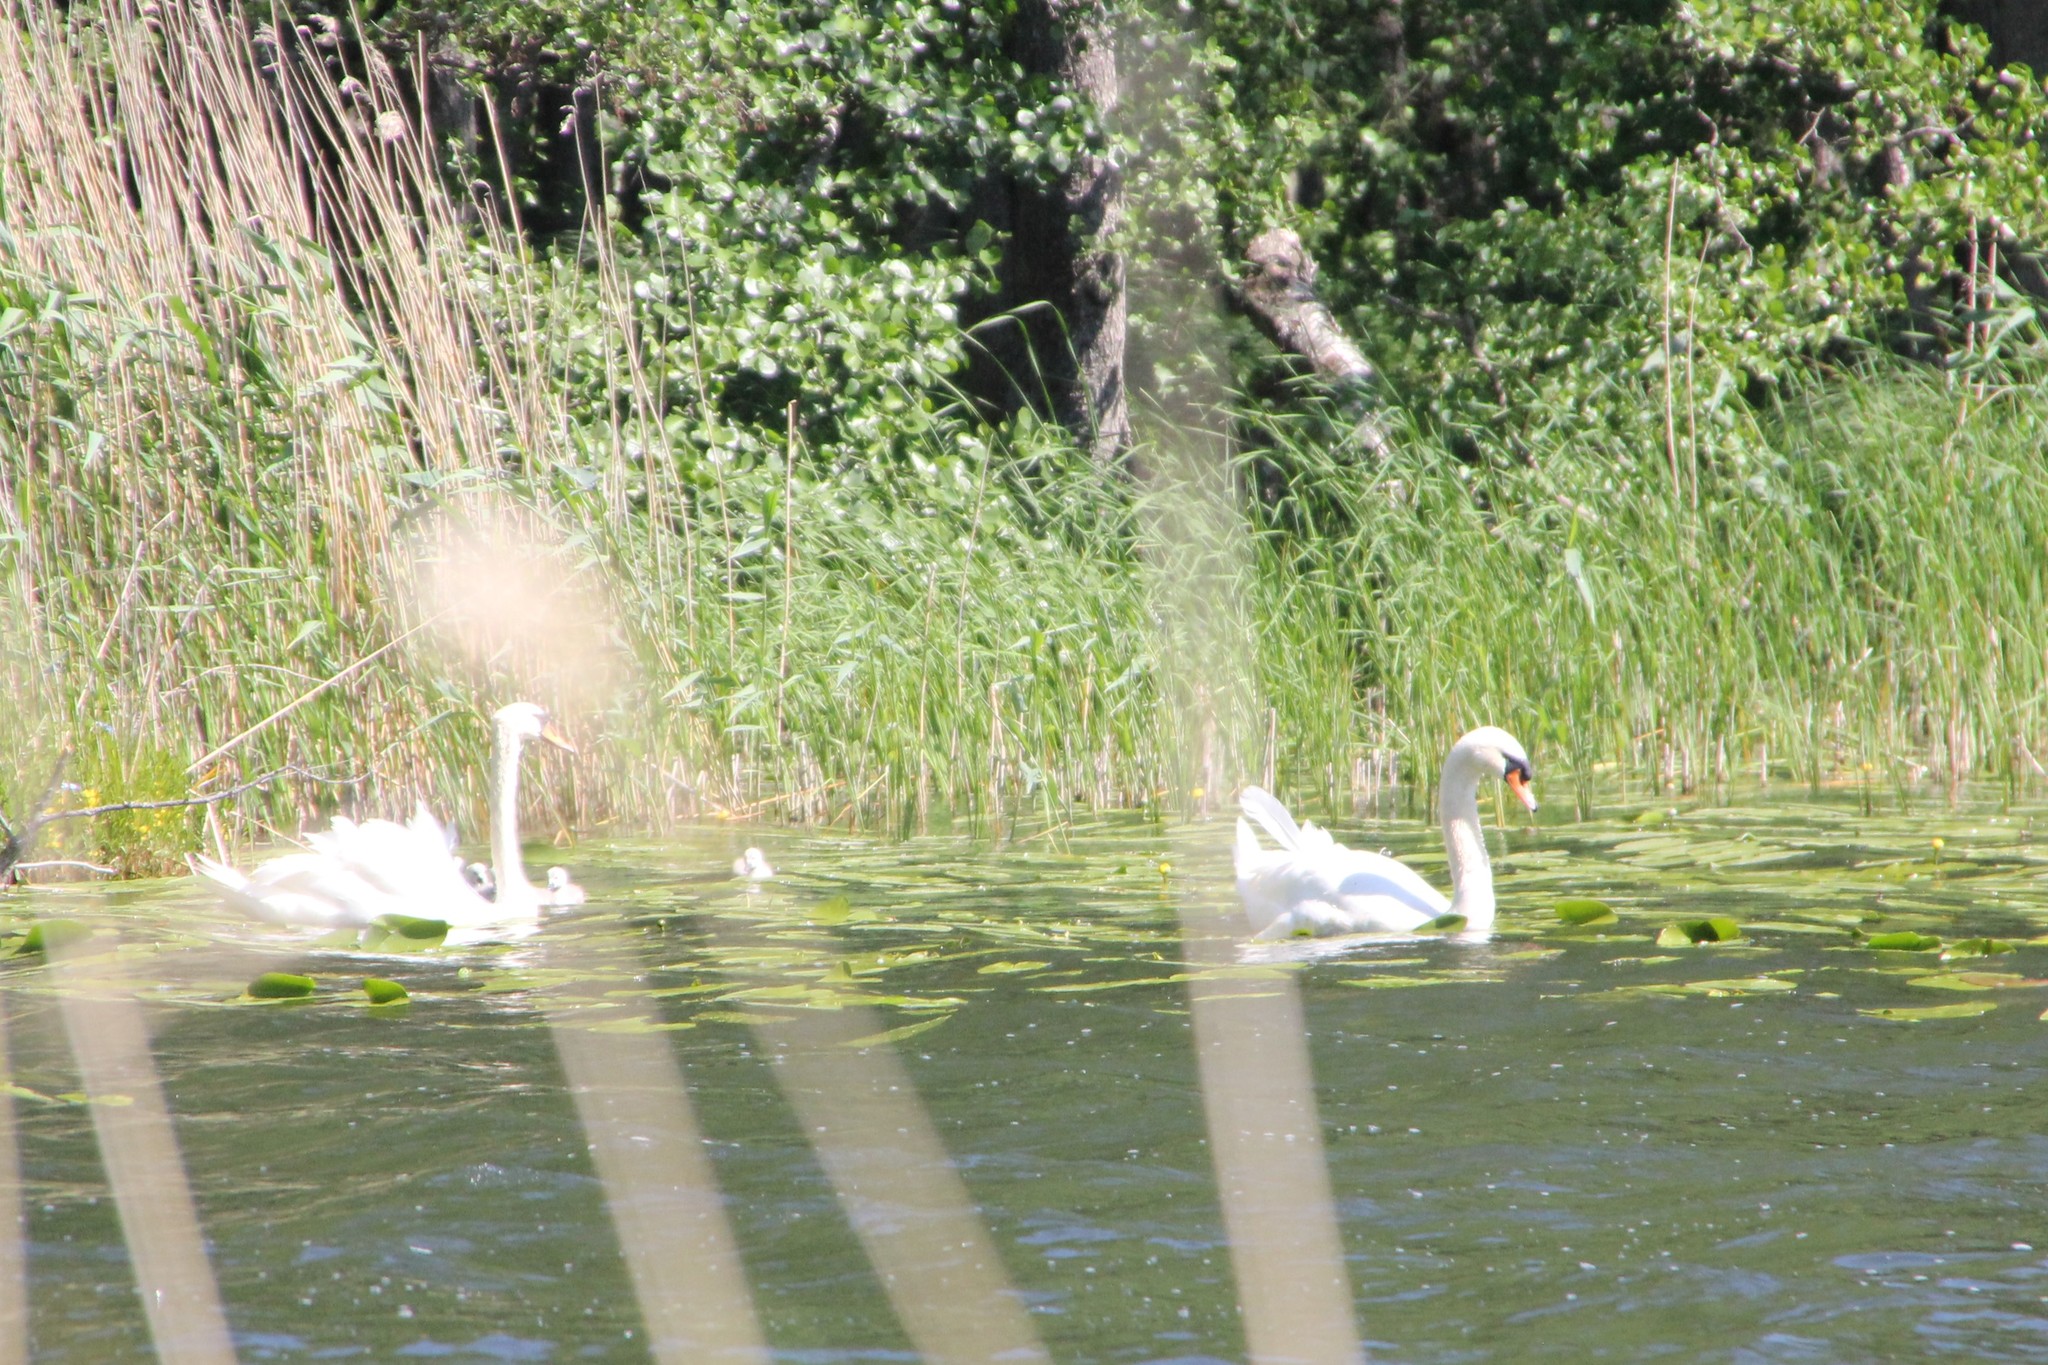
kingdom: Animalia
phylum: Chordata
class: Aves
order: Anseriformes
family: Anatidae
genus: Cygnus
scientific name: Cygnus olor
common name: Mute swan
